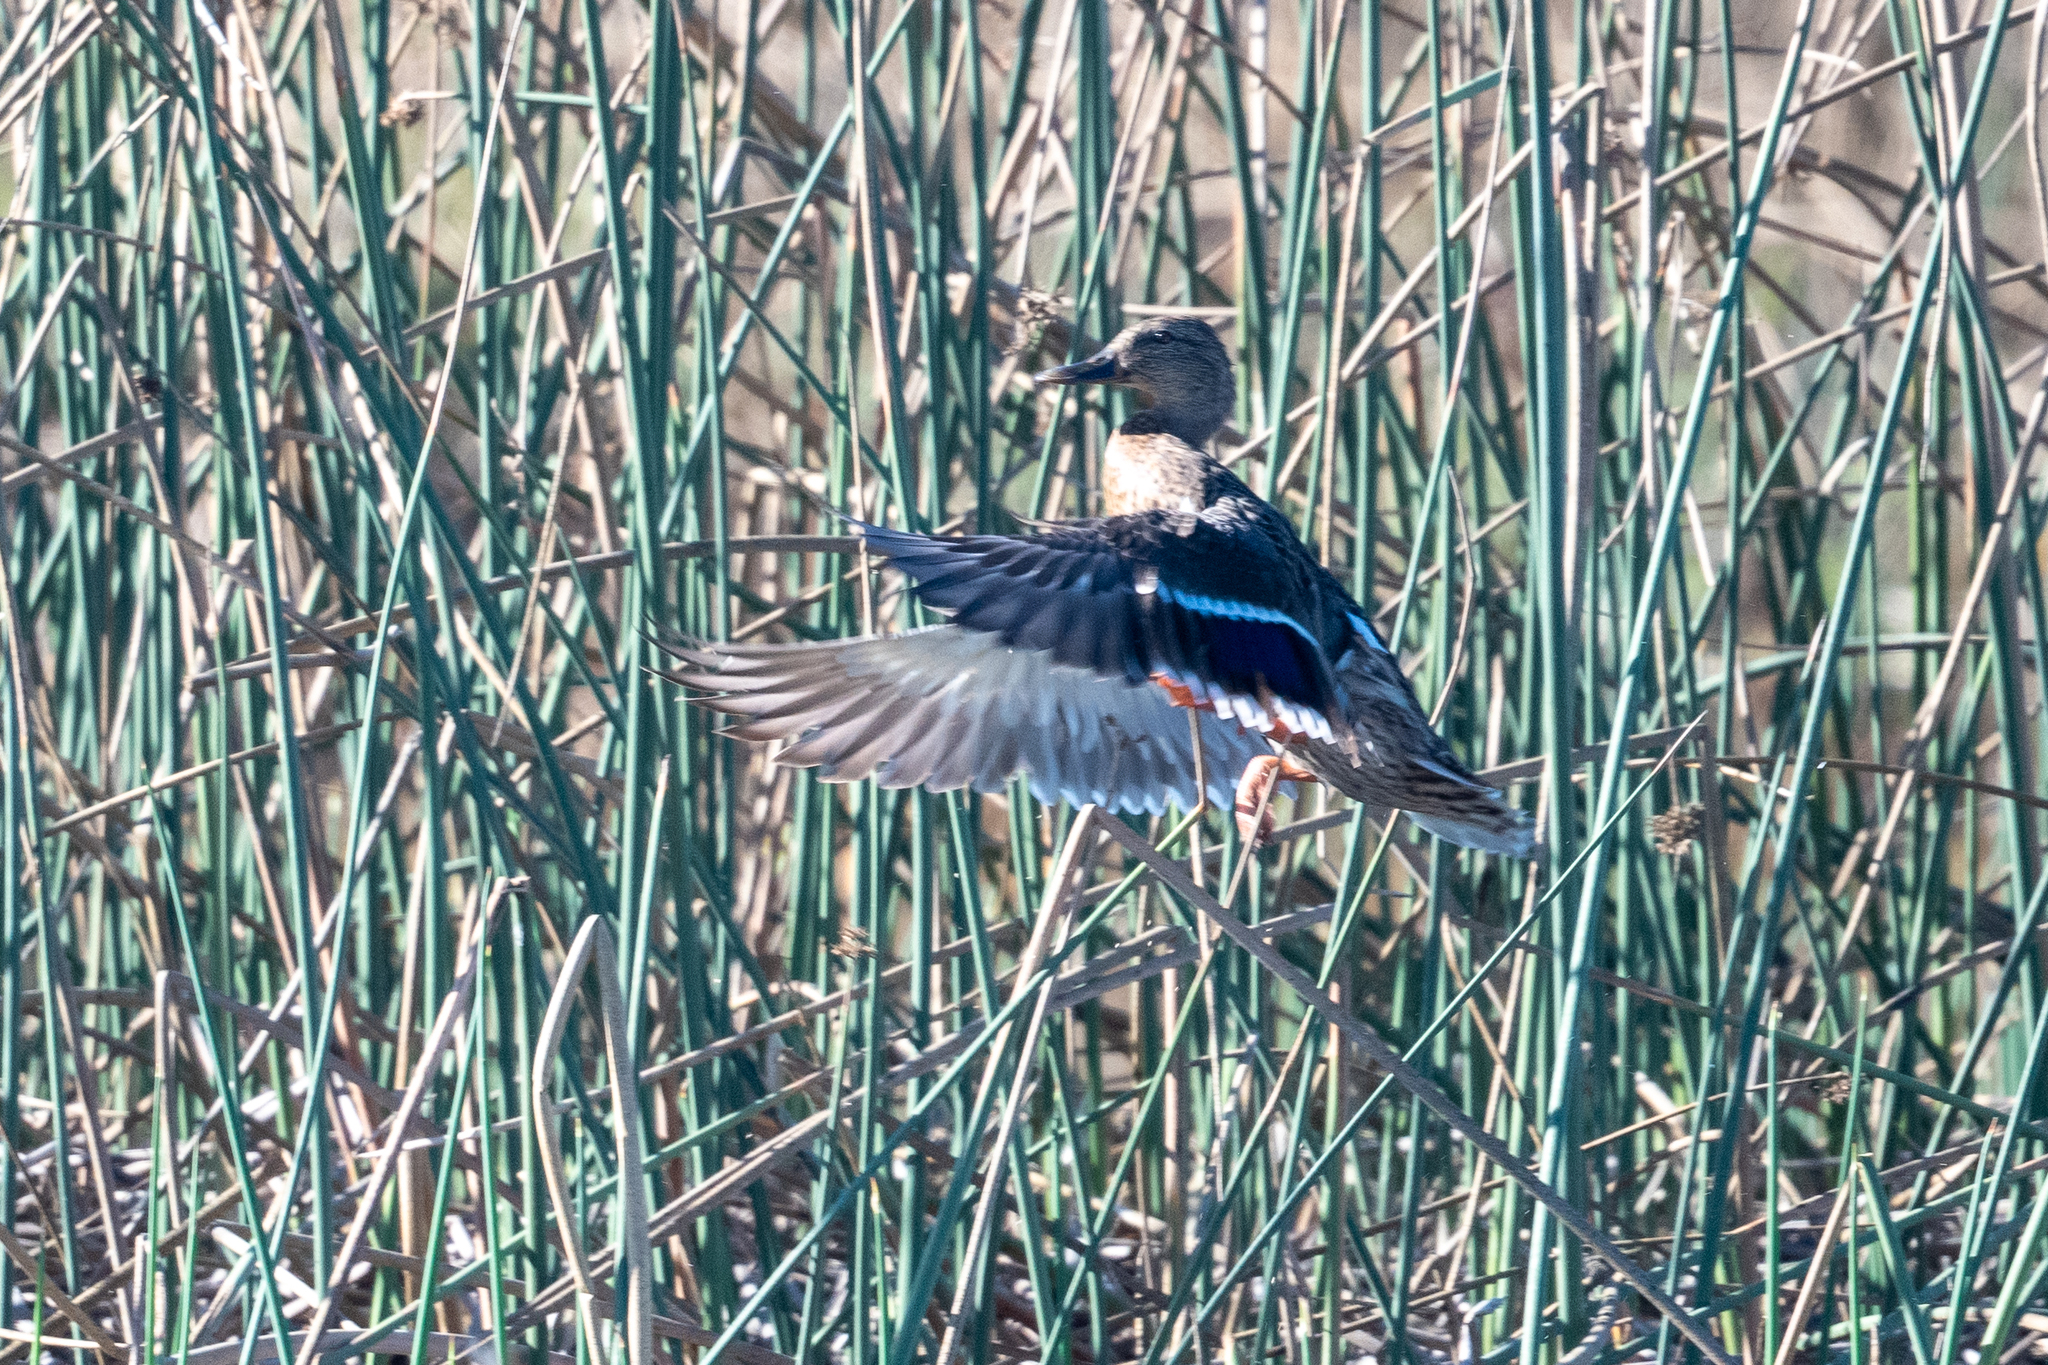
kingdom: Animalia
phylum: Chordata
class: Aves
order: Anseriformes
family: Anatidae
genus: Anas
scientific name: Anas platyrhynchos
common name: Mallard
